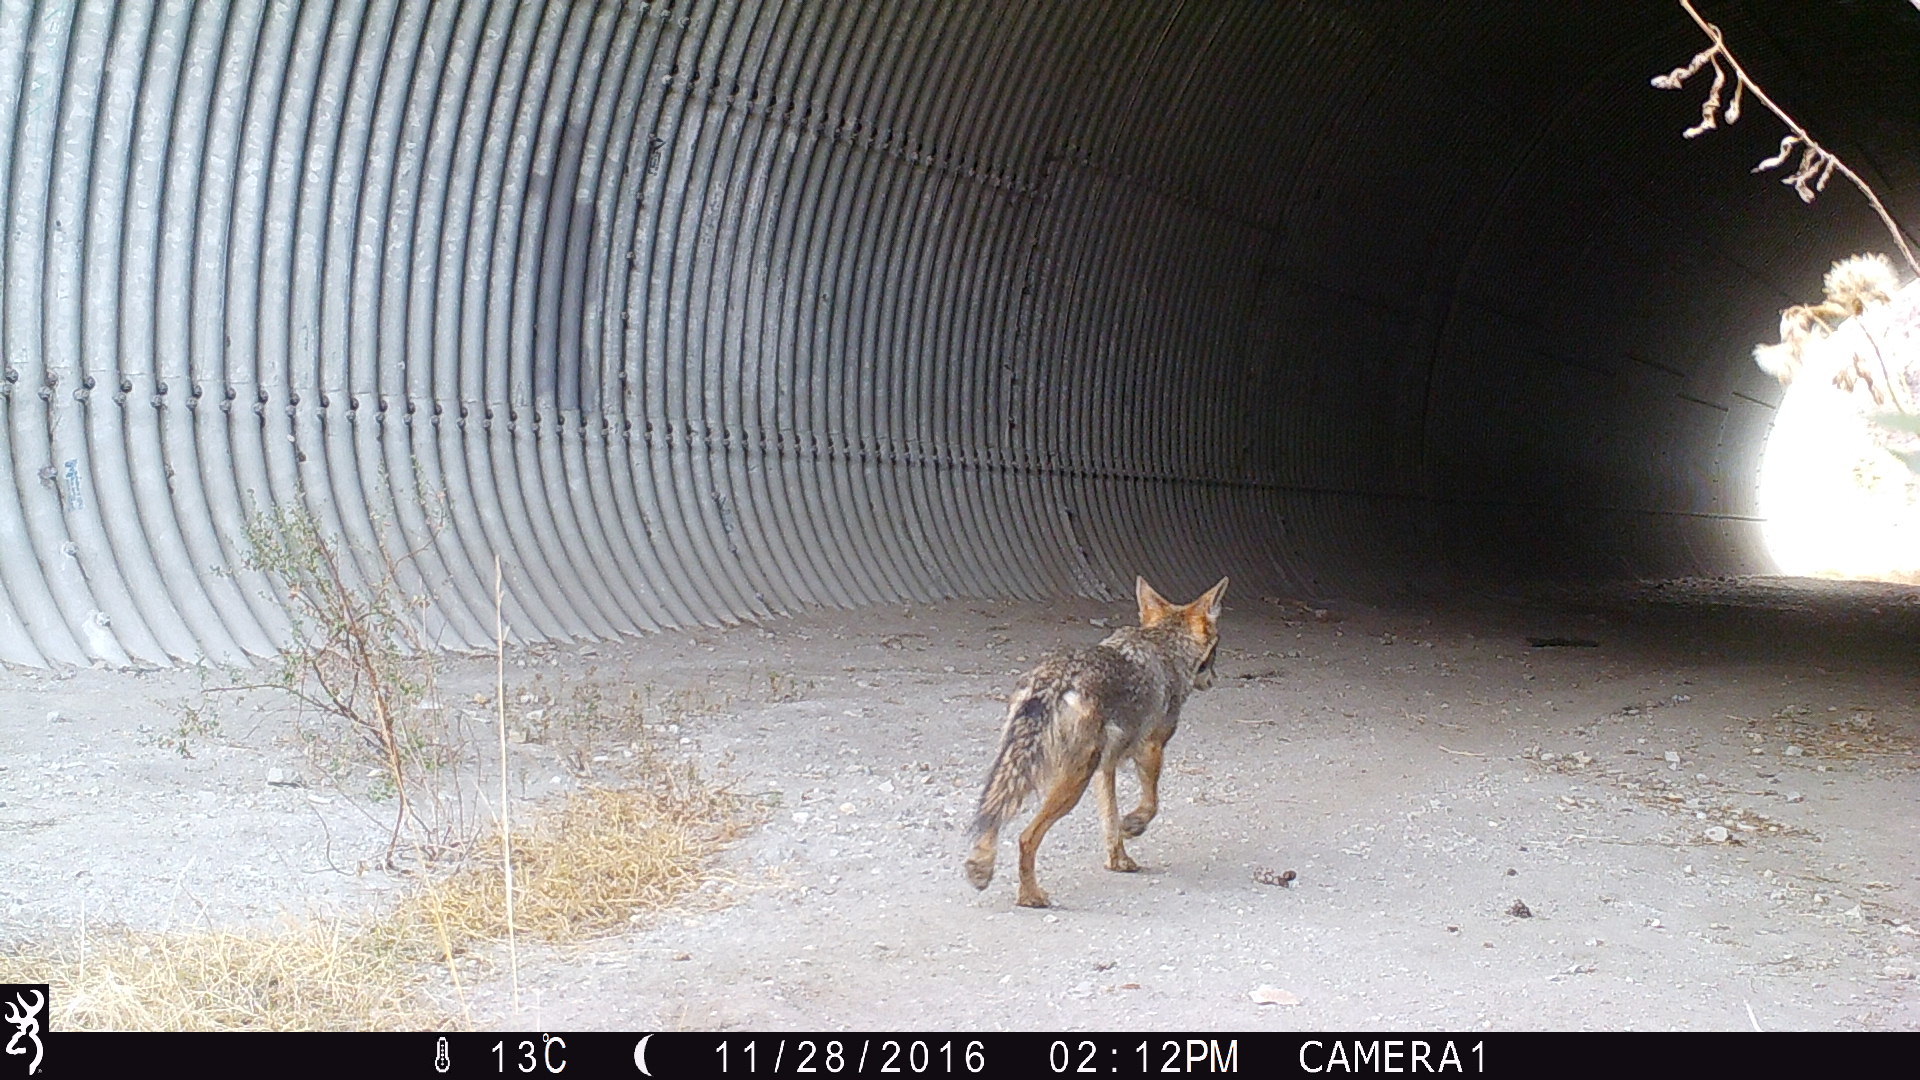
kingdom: Animalia
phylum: Chordata
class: Mammalia
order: Carnivora
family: Canidae
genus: Canis
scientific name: Canis latrans
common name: Coyote
